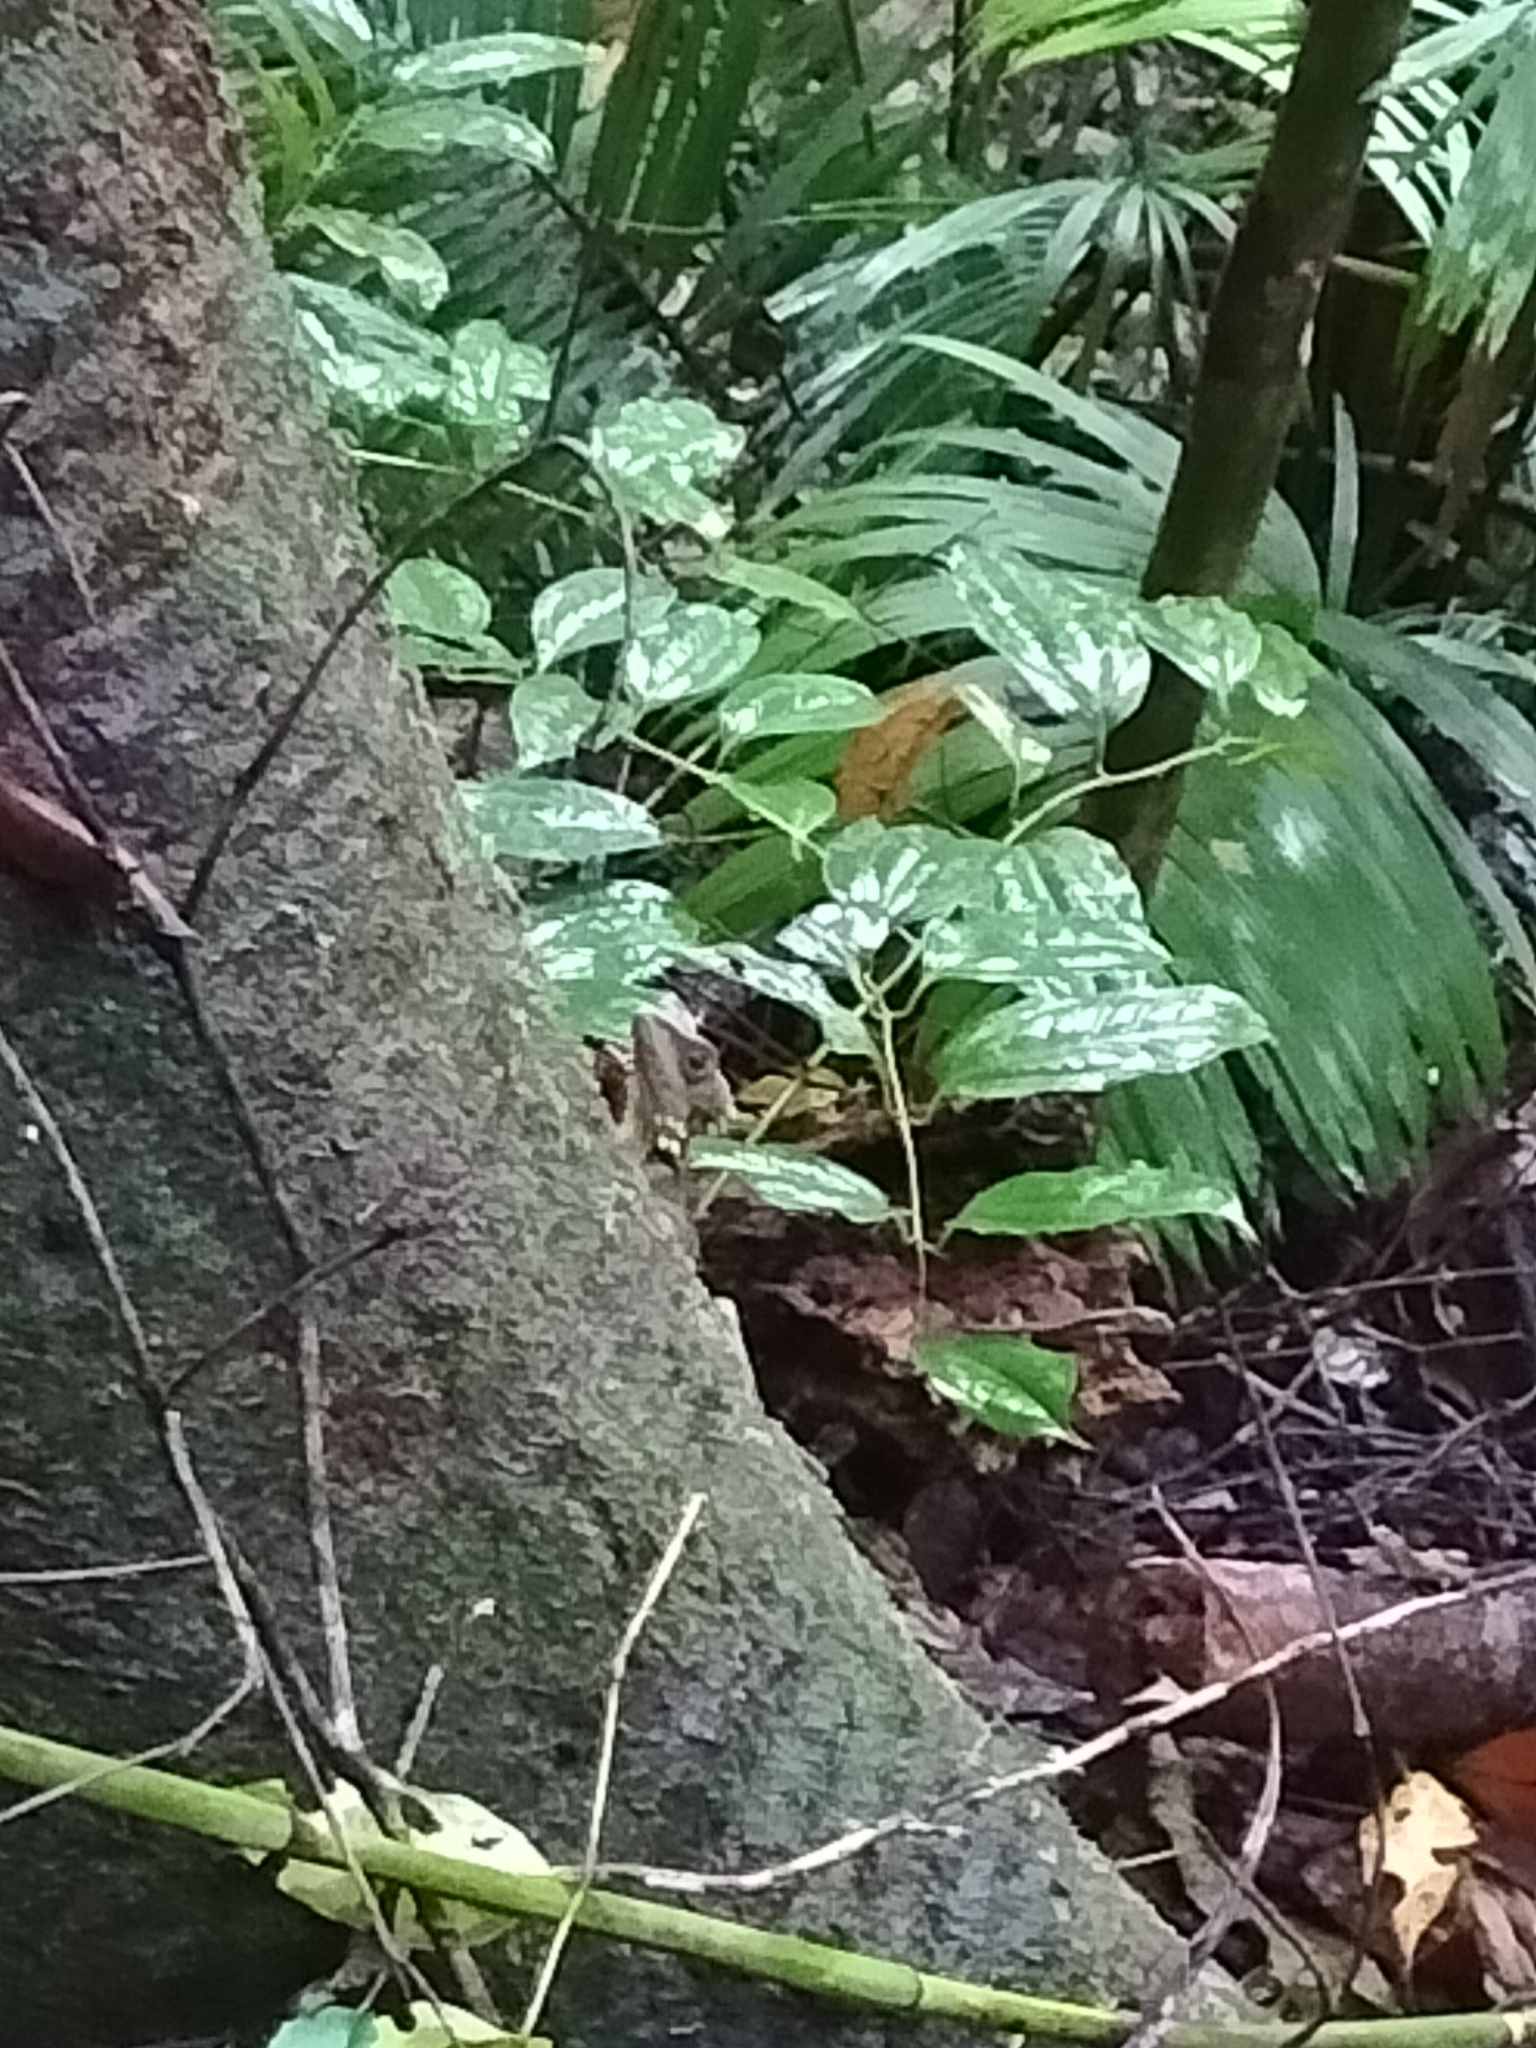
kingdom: Animalia
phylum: Chordata
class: Squamata
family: Agamidae
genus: Lophosaurus
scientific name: Lophosaurus boydii
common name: Boyd's forest dragon
